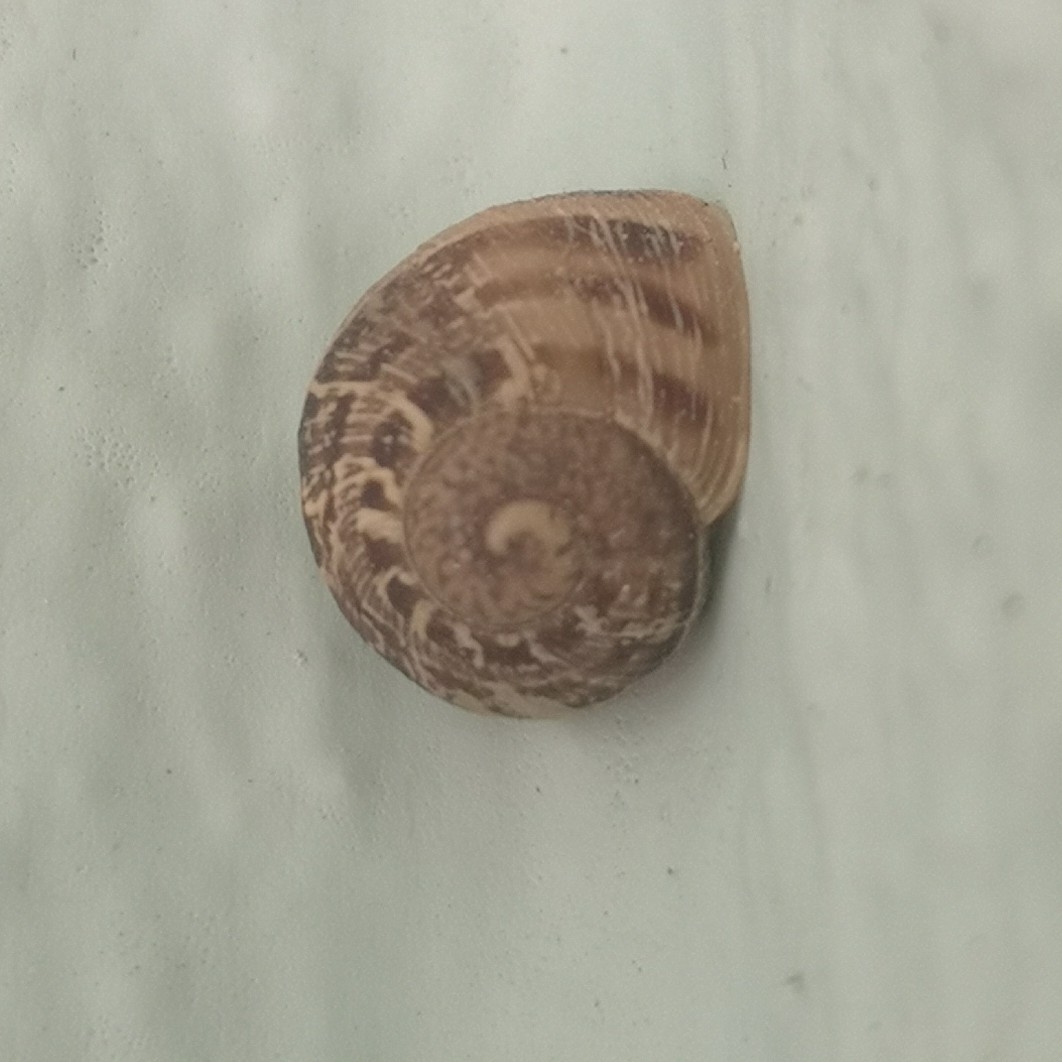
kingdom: Animalia
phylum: Mollusca
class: Gastropoda
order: Stylommatophora
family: Helicidae
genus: Cornu
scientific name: Cornu aspersum
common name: Brown garden snail
